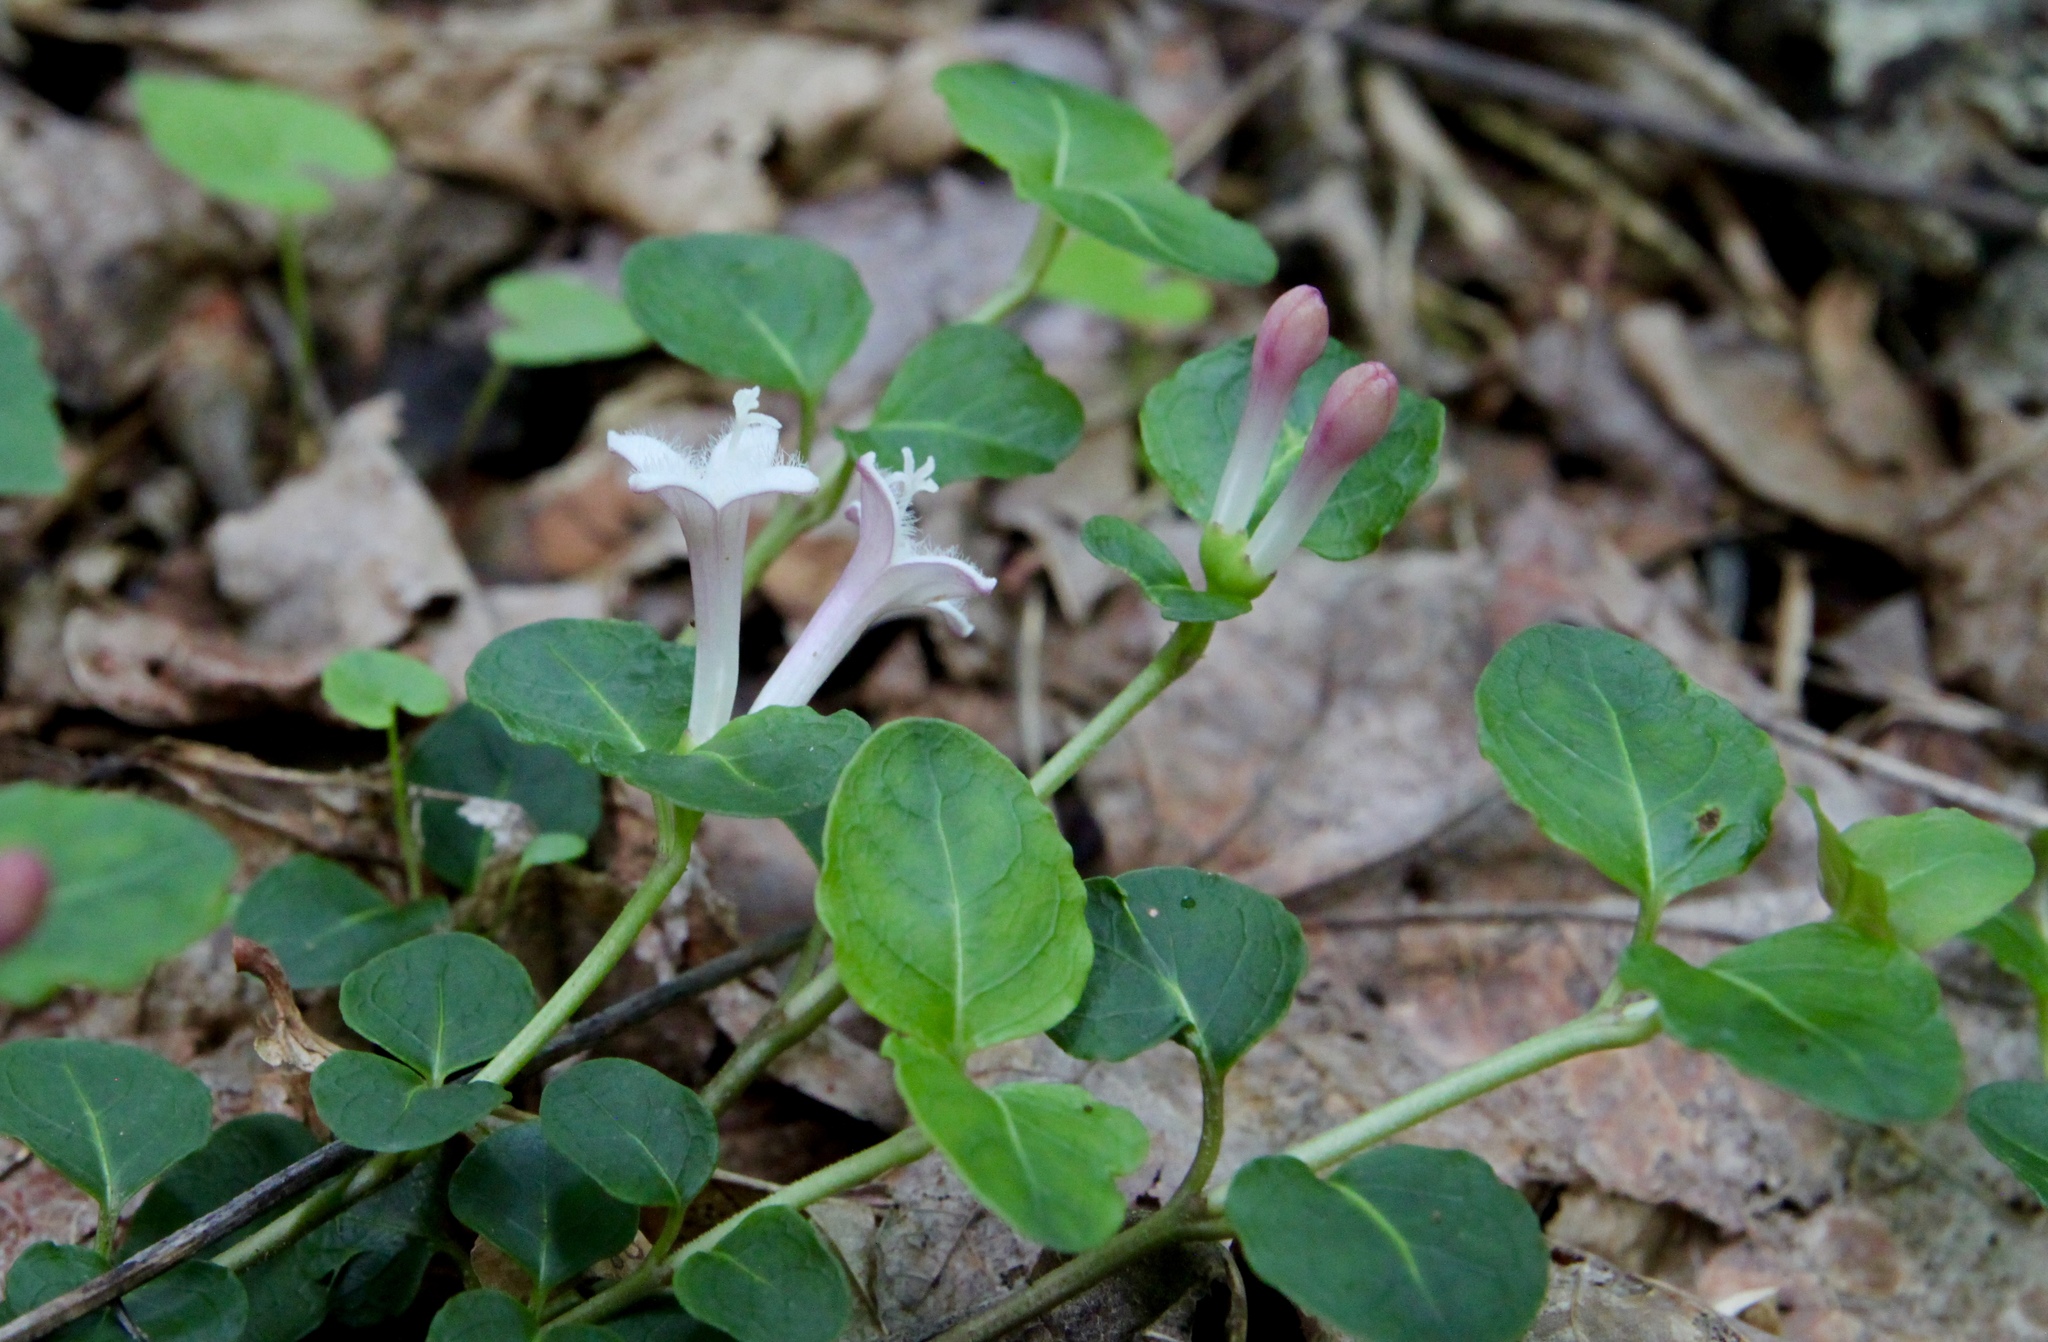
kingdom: Plantae
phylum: Tracheophyta
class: Magnoliopsida
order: Gentianales
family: Rubiaceae
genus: Mitchella
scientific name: Mitchella repens
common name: Partridge-berry
